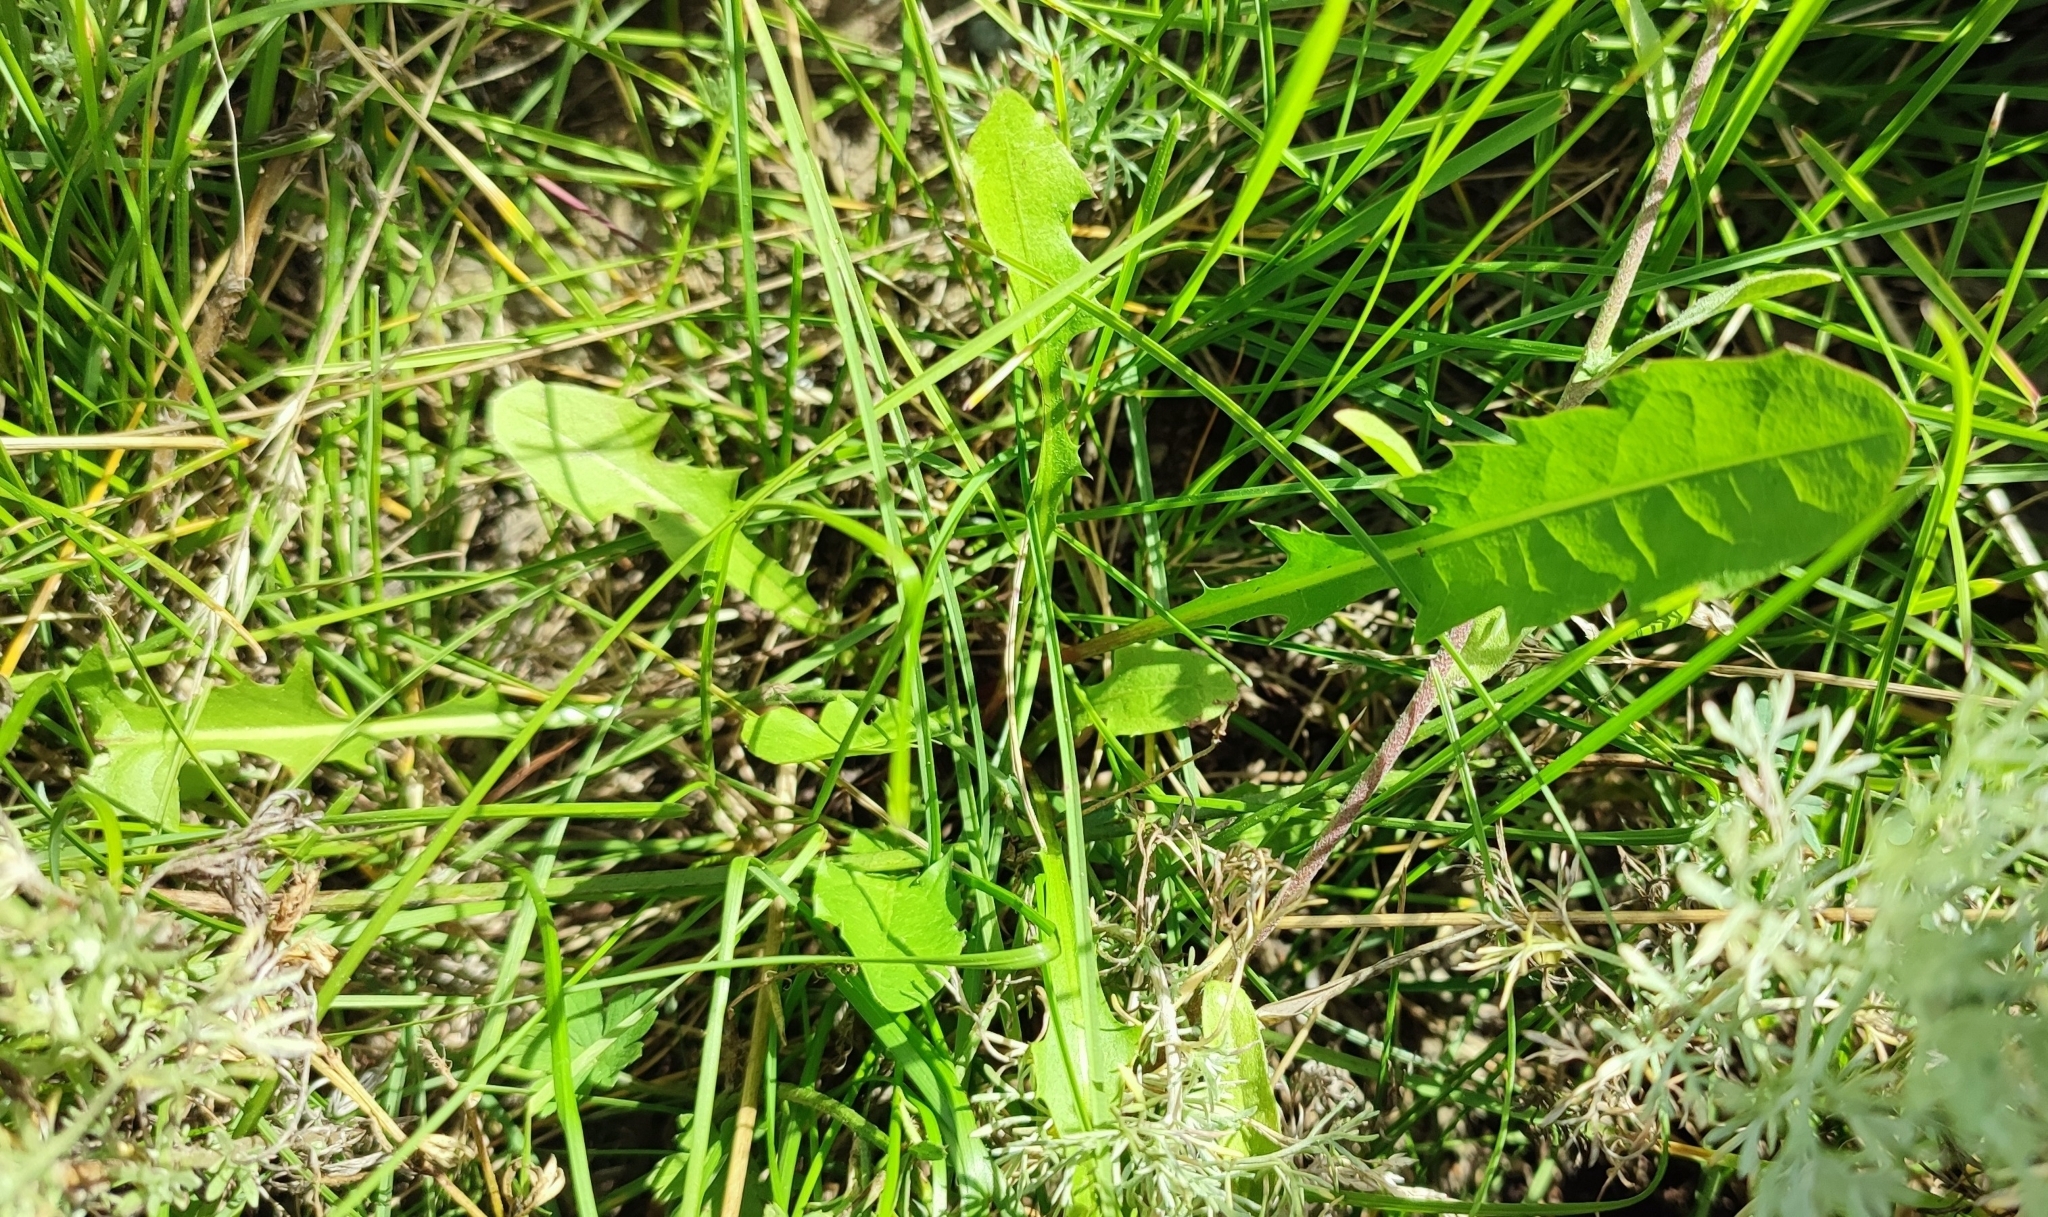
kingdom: Plantae
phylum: Tracheophyta
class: Magnoliopsida
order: Asterales
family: Asteraceae
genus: Taraxacum
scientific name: Taraxacum officinale
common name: Common dandelion
